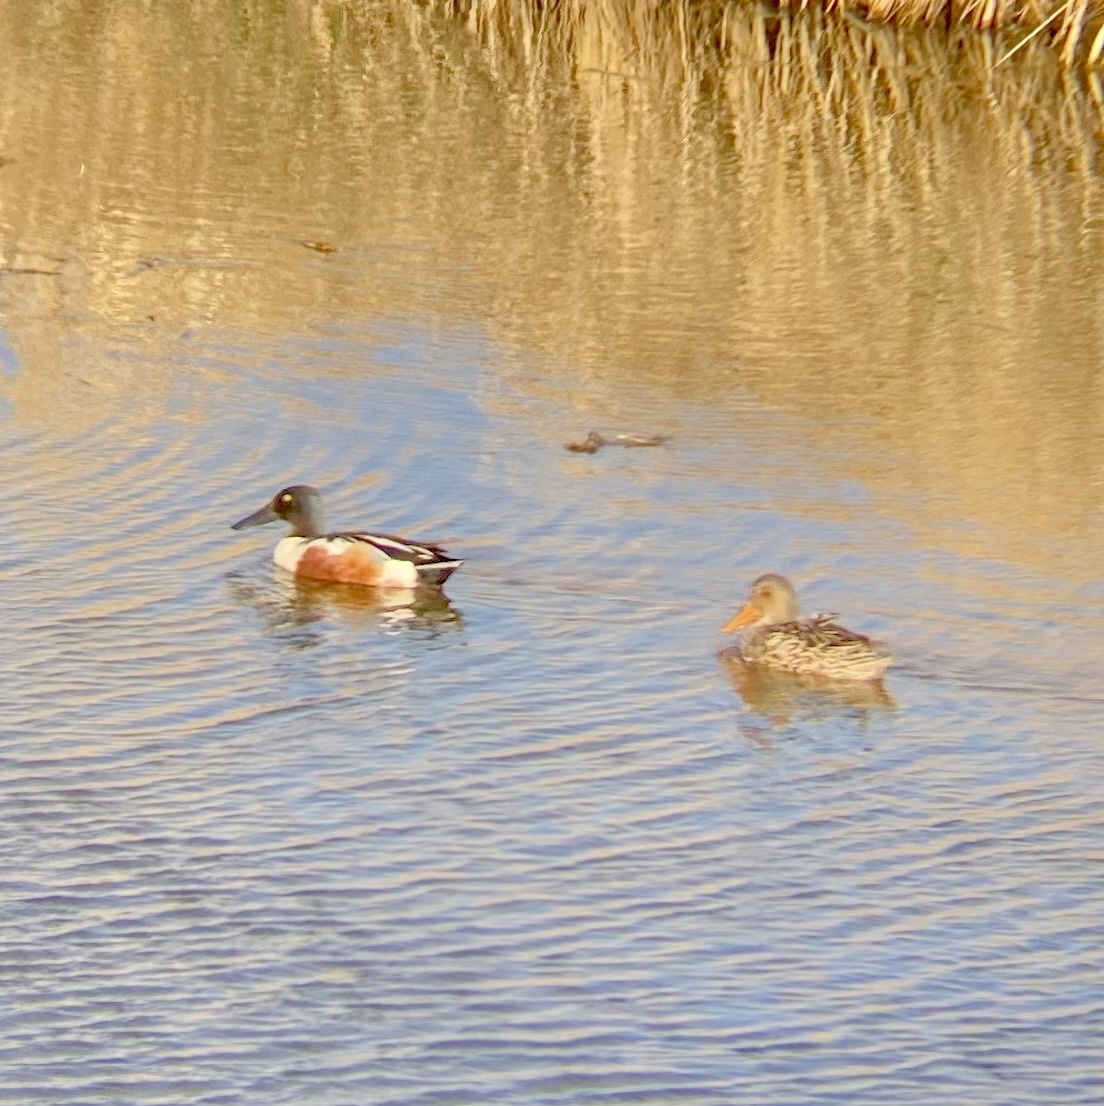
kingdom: Animalia
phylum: Chordata
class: Aves
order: Anseriformes
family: Anatidae
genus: Spatula
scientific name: Spatula clypeata
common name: Northern shoveler
